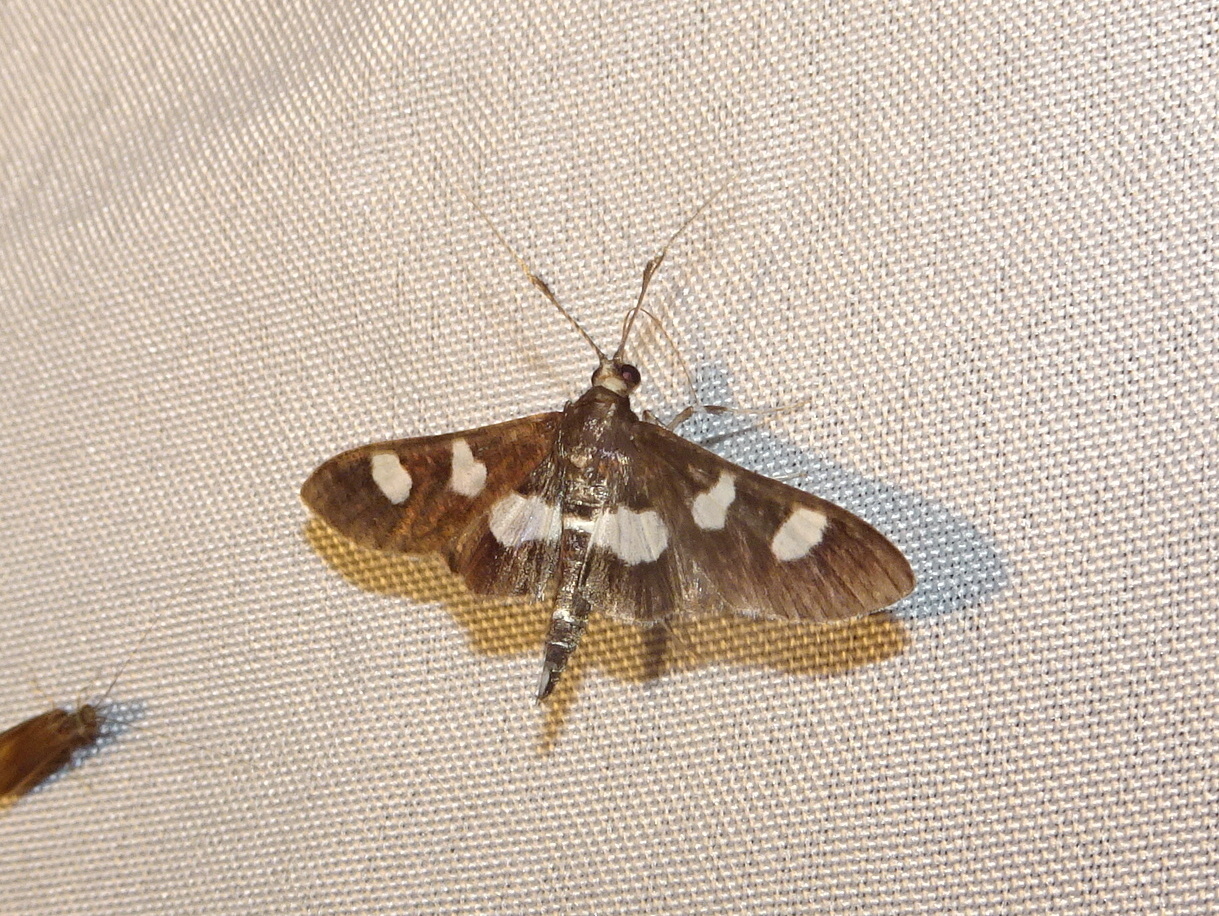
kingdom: Animalia
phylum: Arthropoda
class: Insecta
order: Lepidoptera
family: Crambidae
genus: Desmia
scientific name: Desmia
